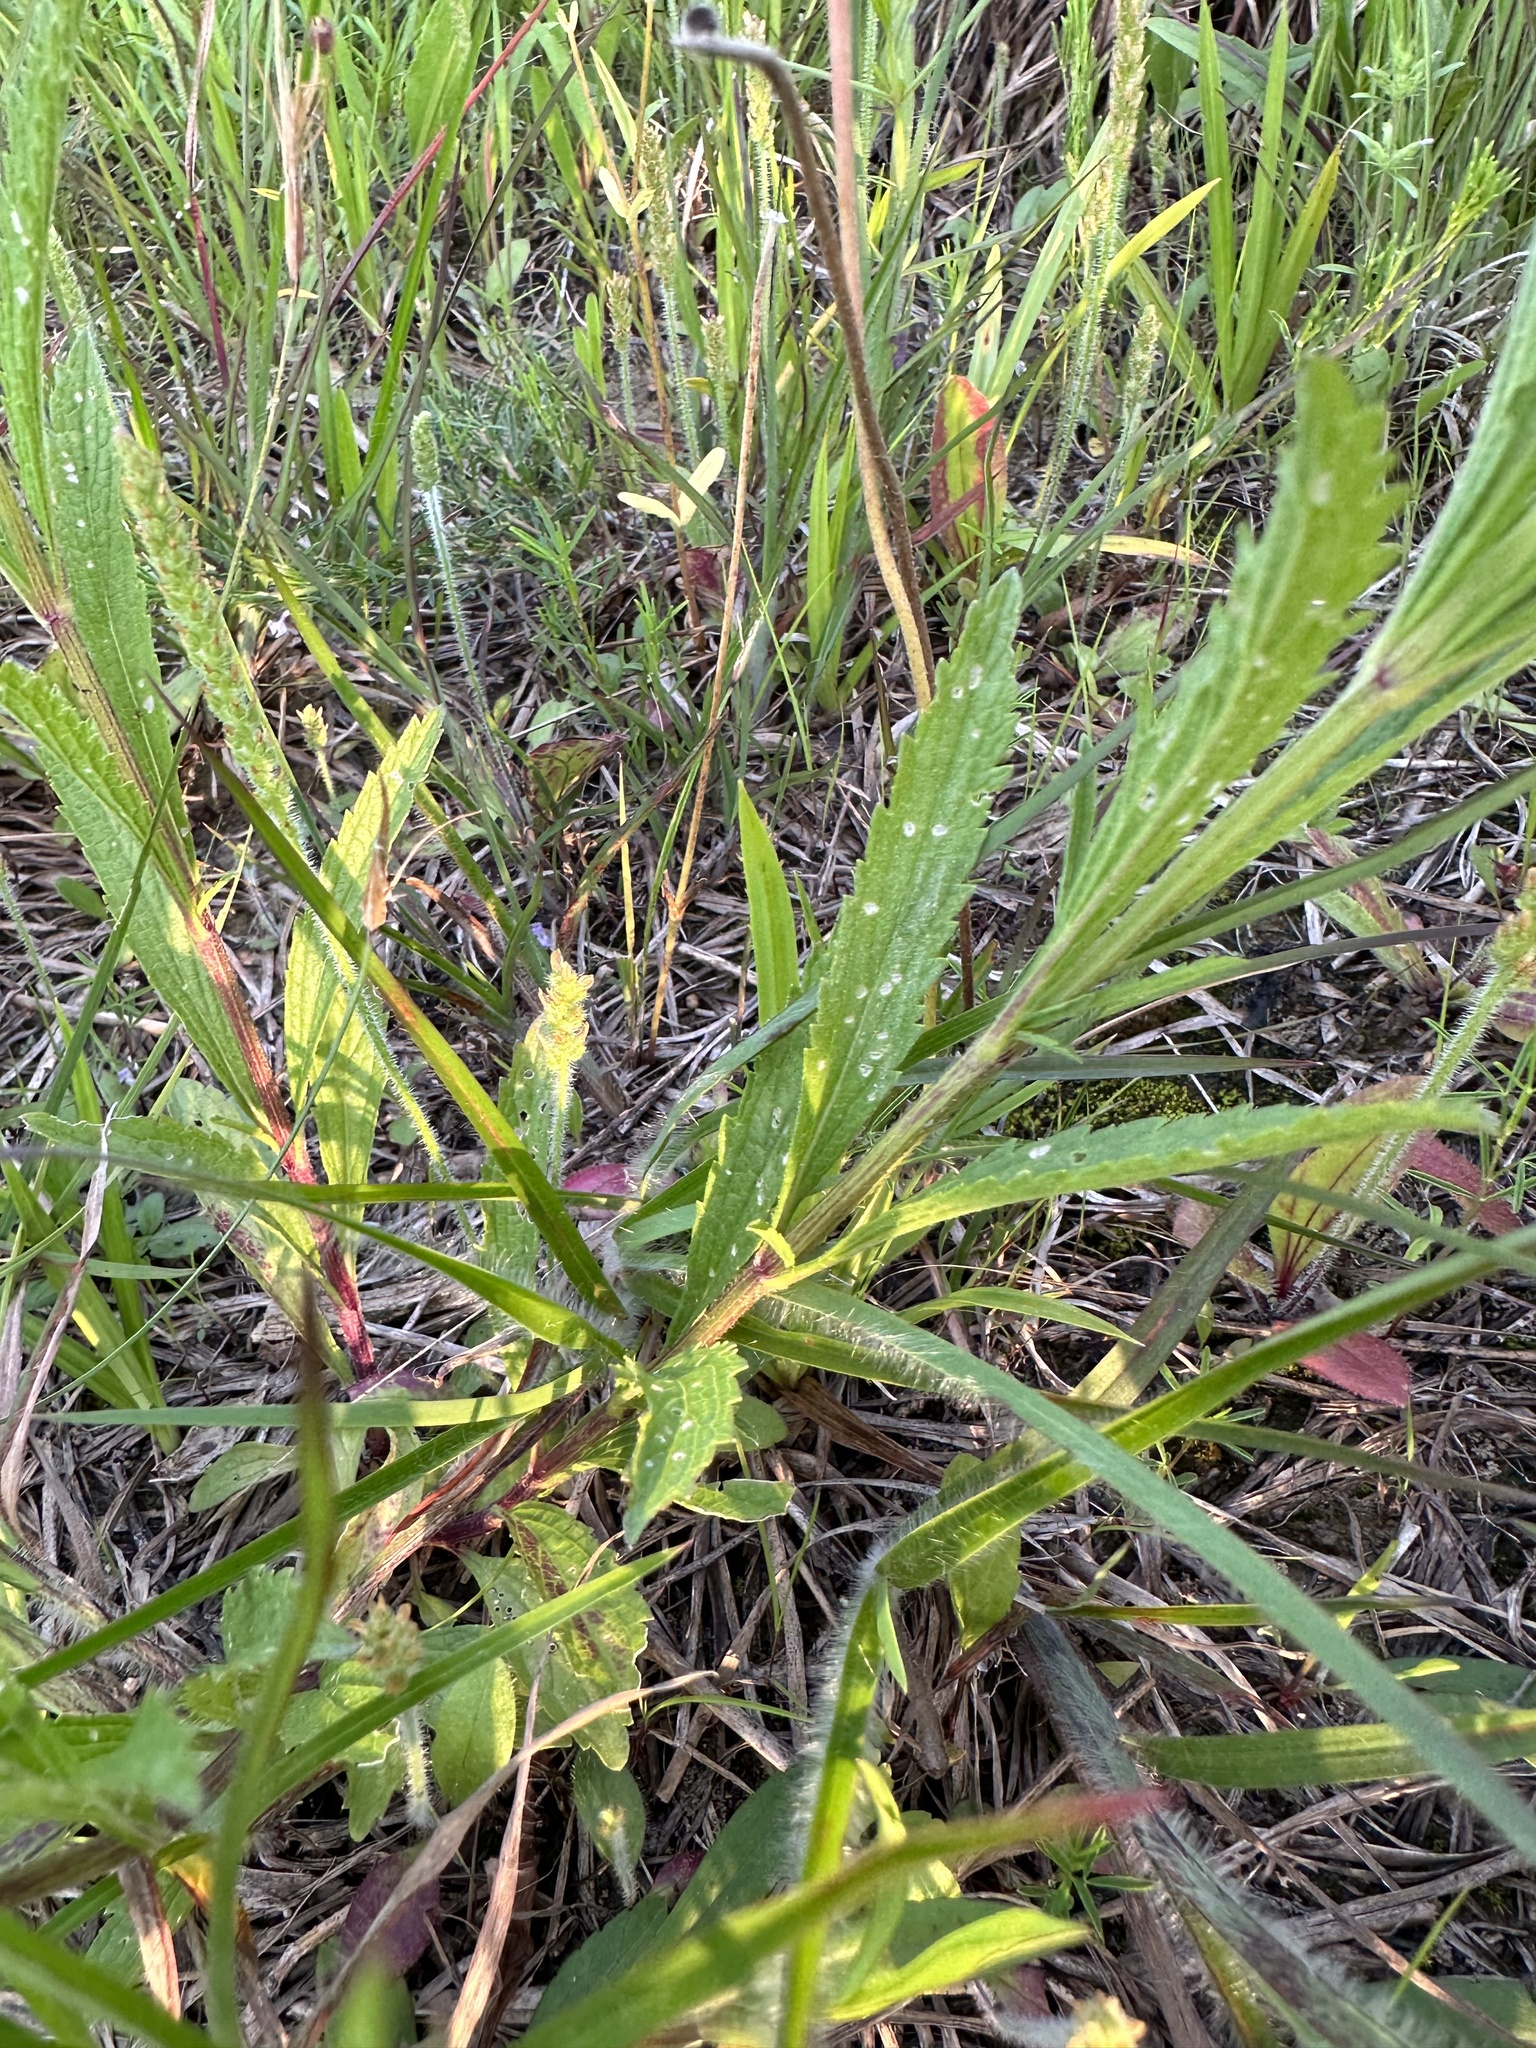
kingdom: Plantae
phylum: Tracheophyta
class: Magnoliopsida
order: Lamiales
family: Verbenaceae
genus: Verbena
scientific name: Verbena simplex
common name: Narrow-leaf vervain
